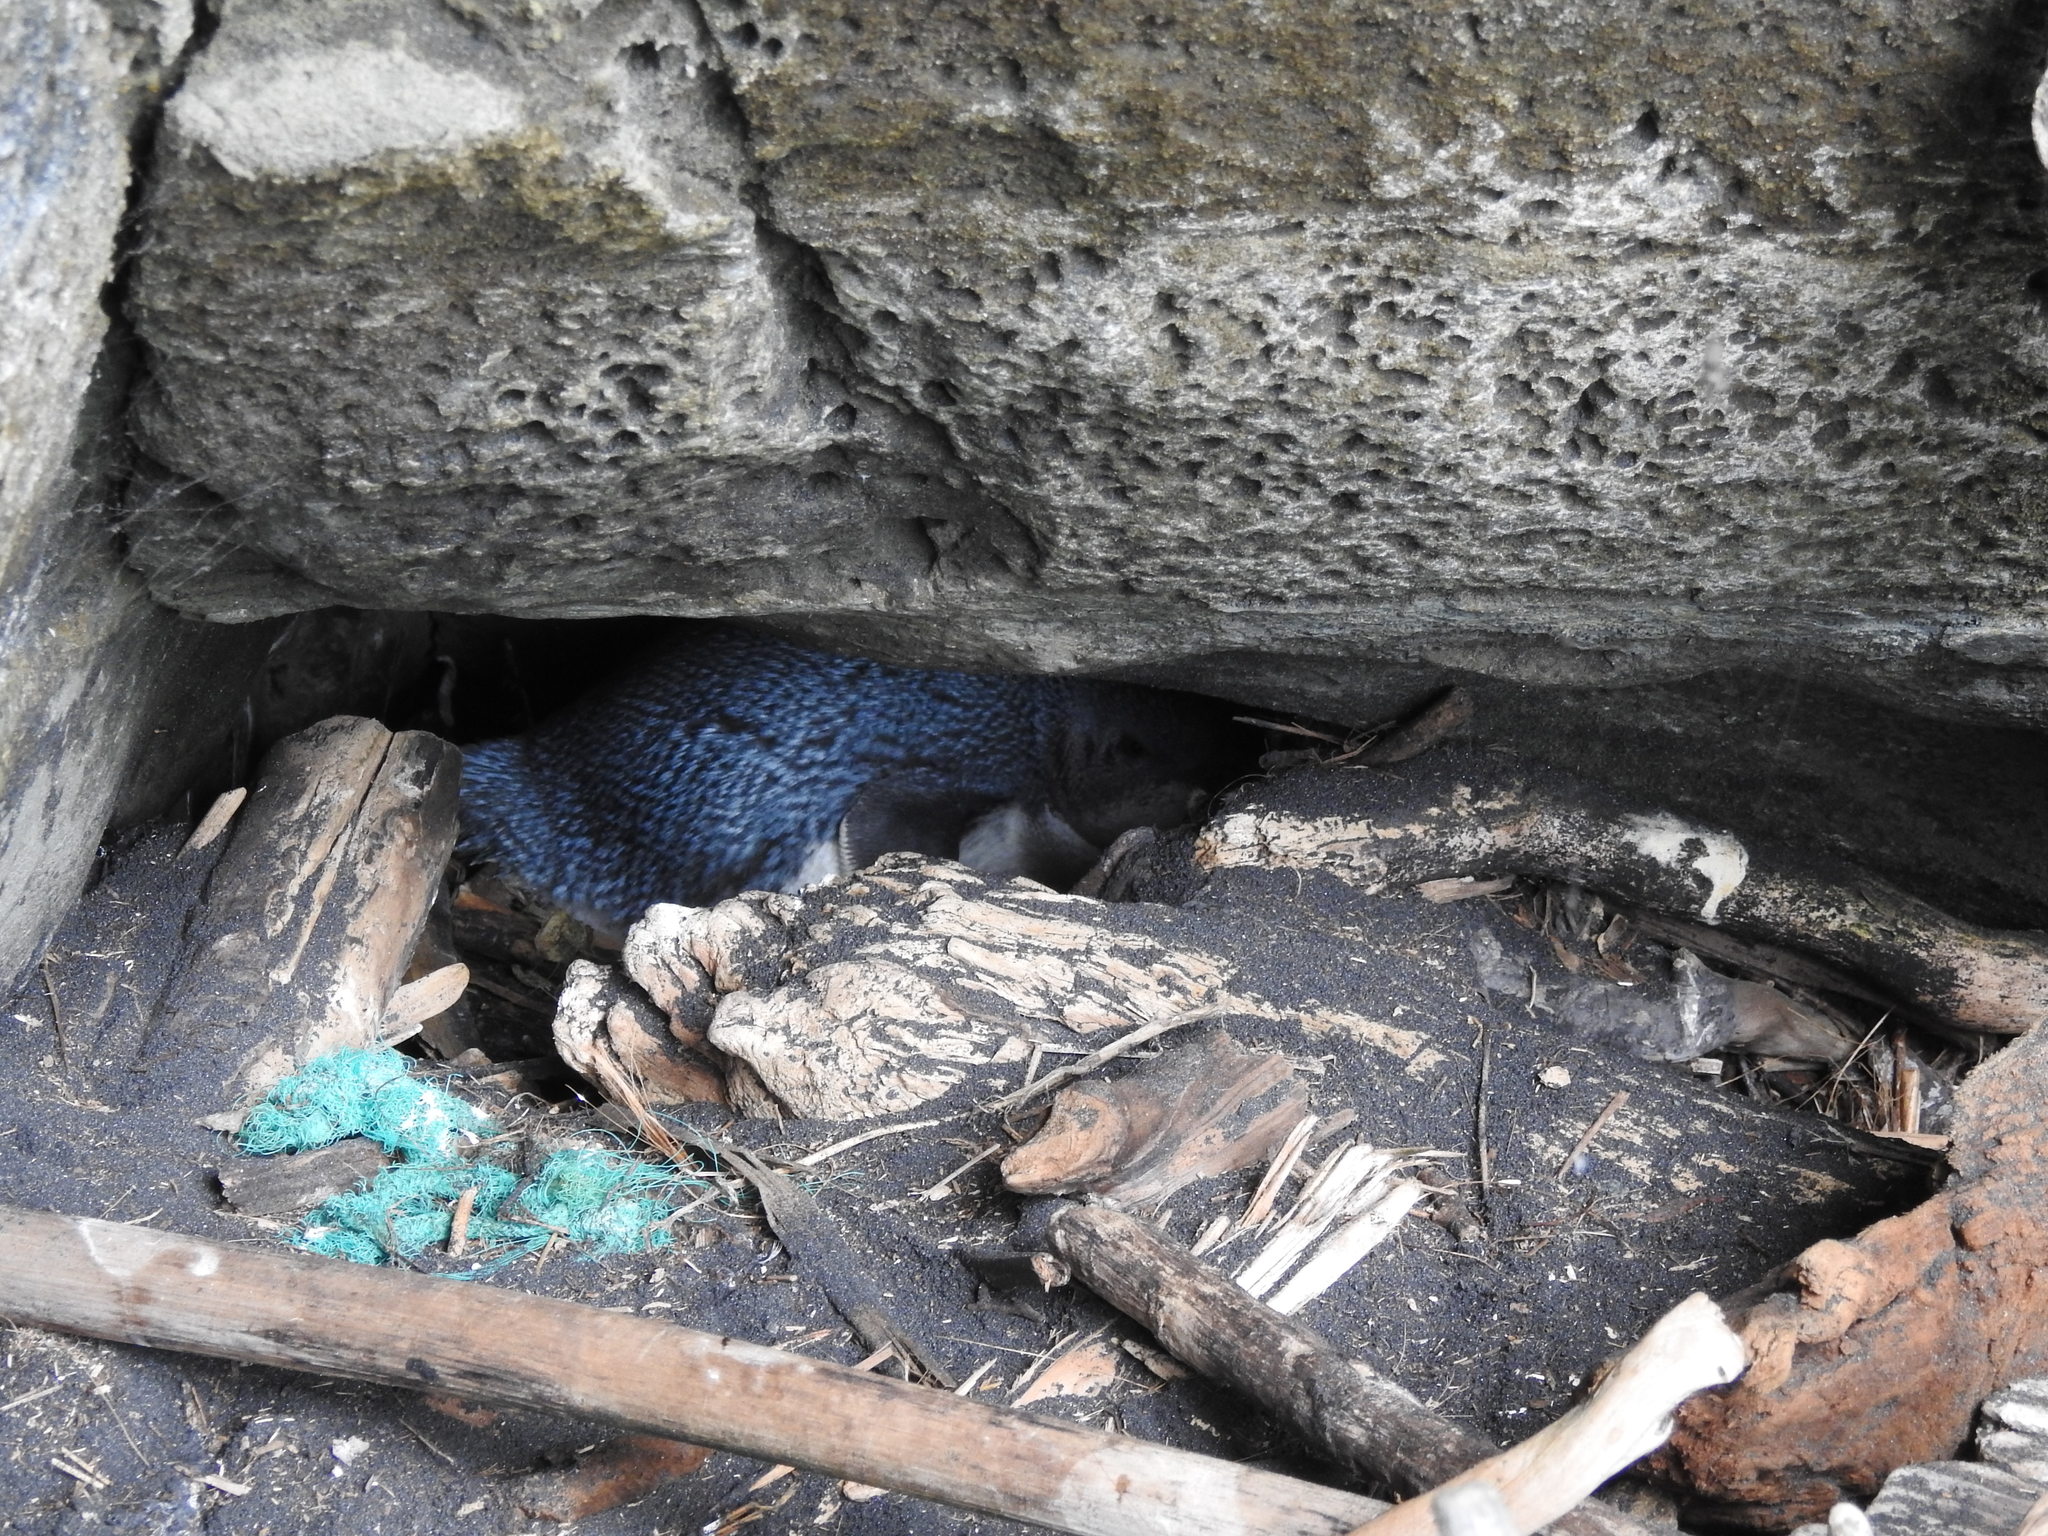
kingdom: Animalia
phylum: Chordata
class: Aves
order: Sphenisciformes
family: Spheniscidae
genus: Eudyptula
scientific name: Eudyptula minor
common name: Little penguin
